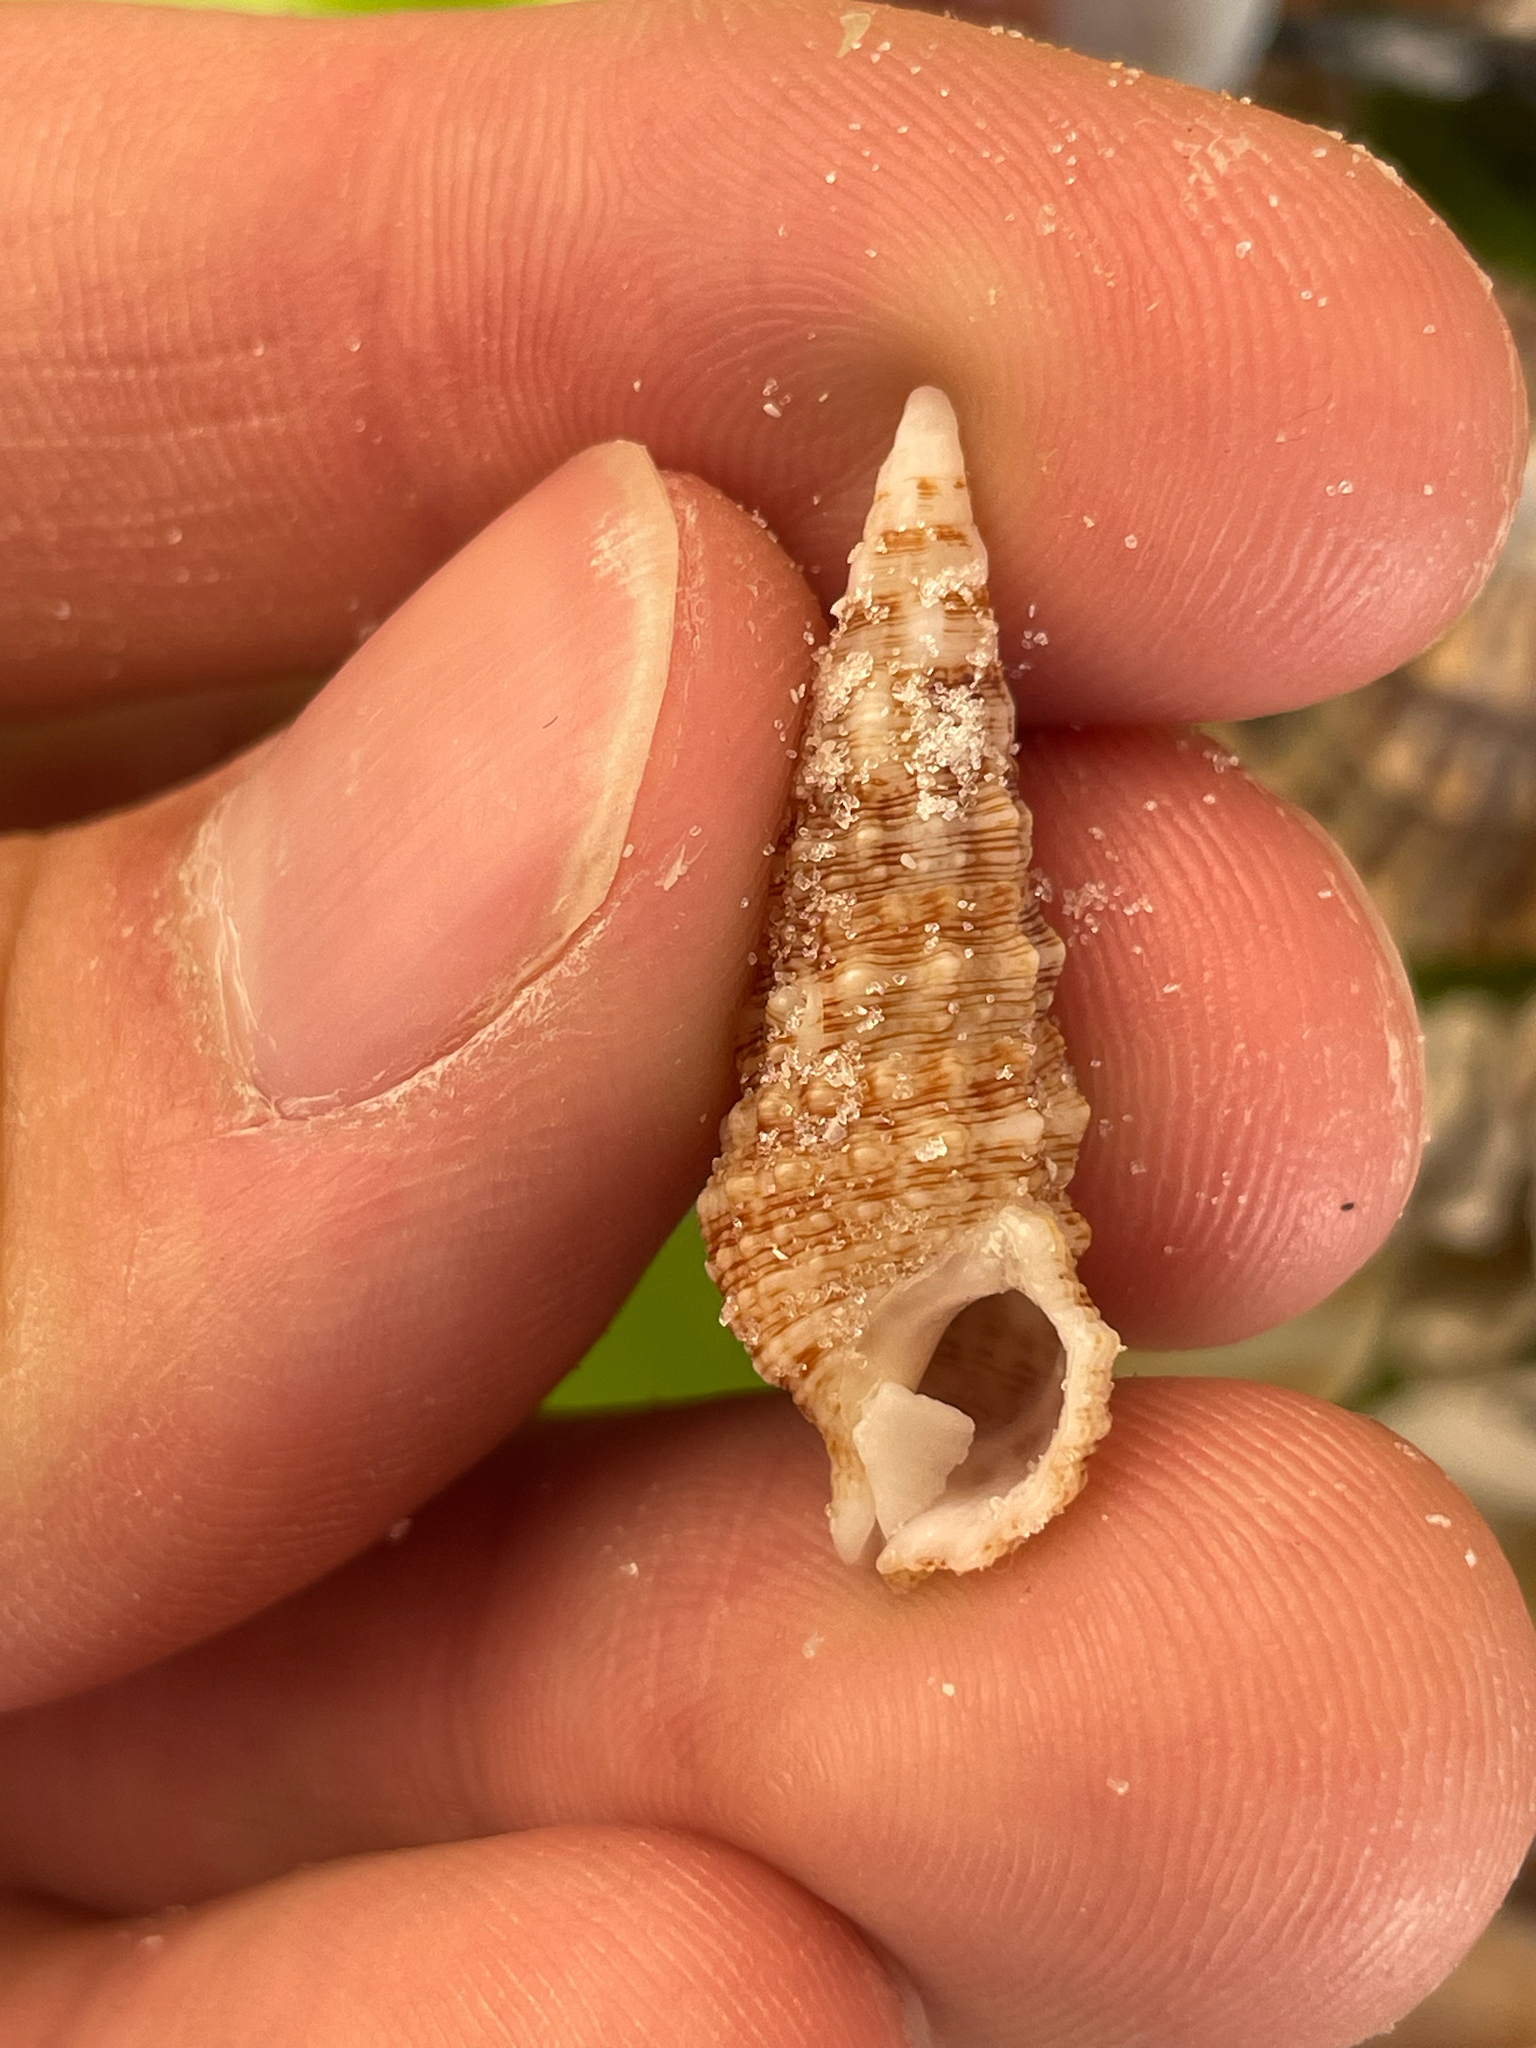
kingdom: Animalia
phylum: Mollusca
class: Gastropoda
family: Cerithiidae
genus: Cerithium
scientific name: Cerithium atratum
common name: Dark cerith
